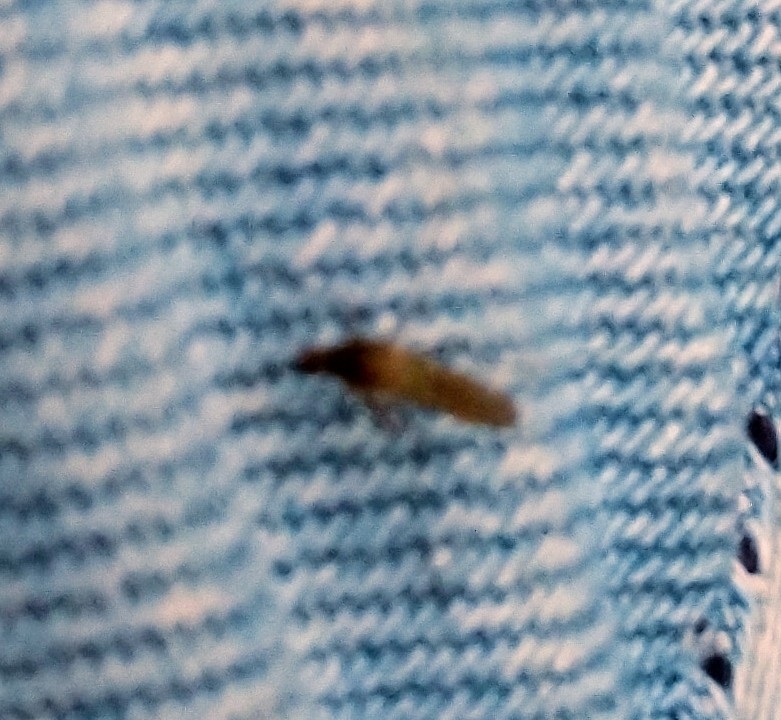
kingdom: Animalia
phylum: Arthropoda
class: Insecta
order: Diptera
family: Culicidae
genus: Aedes
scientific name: Aedes vexans
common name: Inland floodwater mosquito
